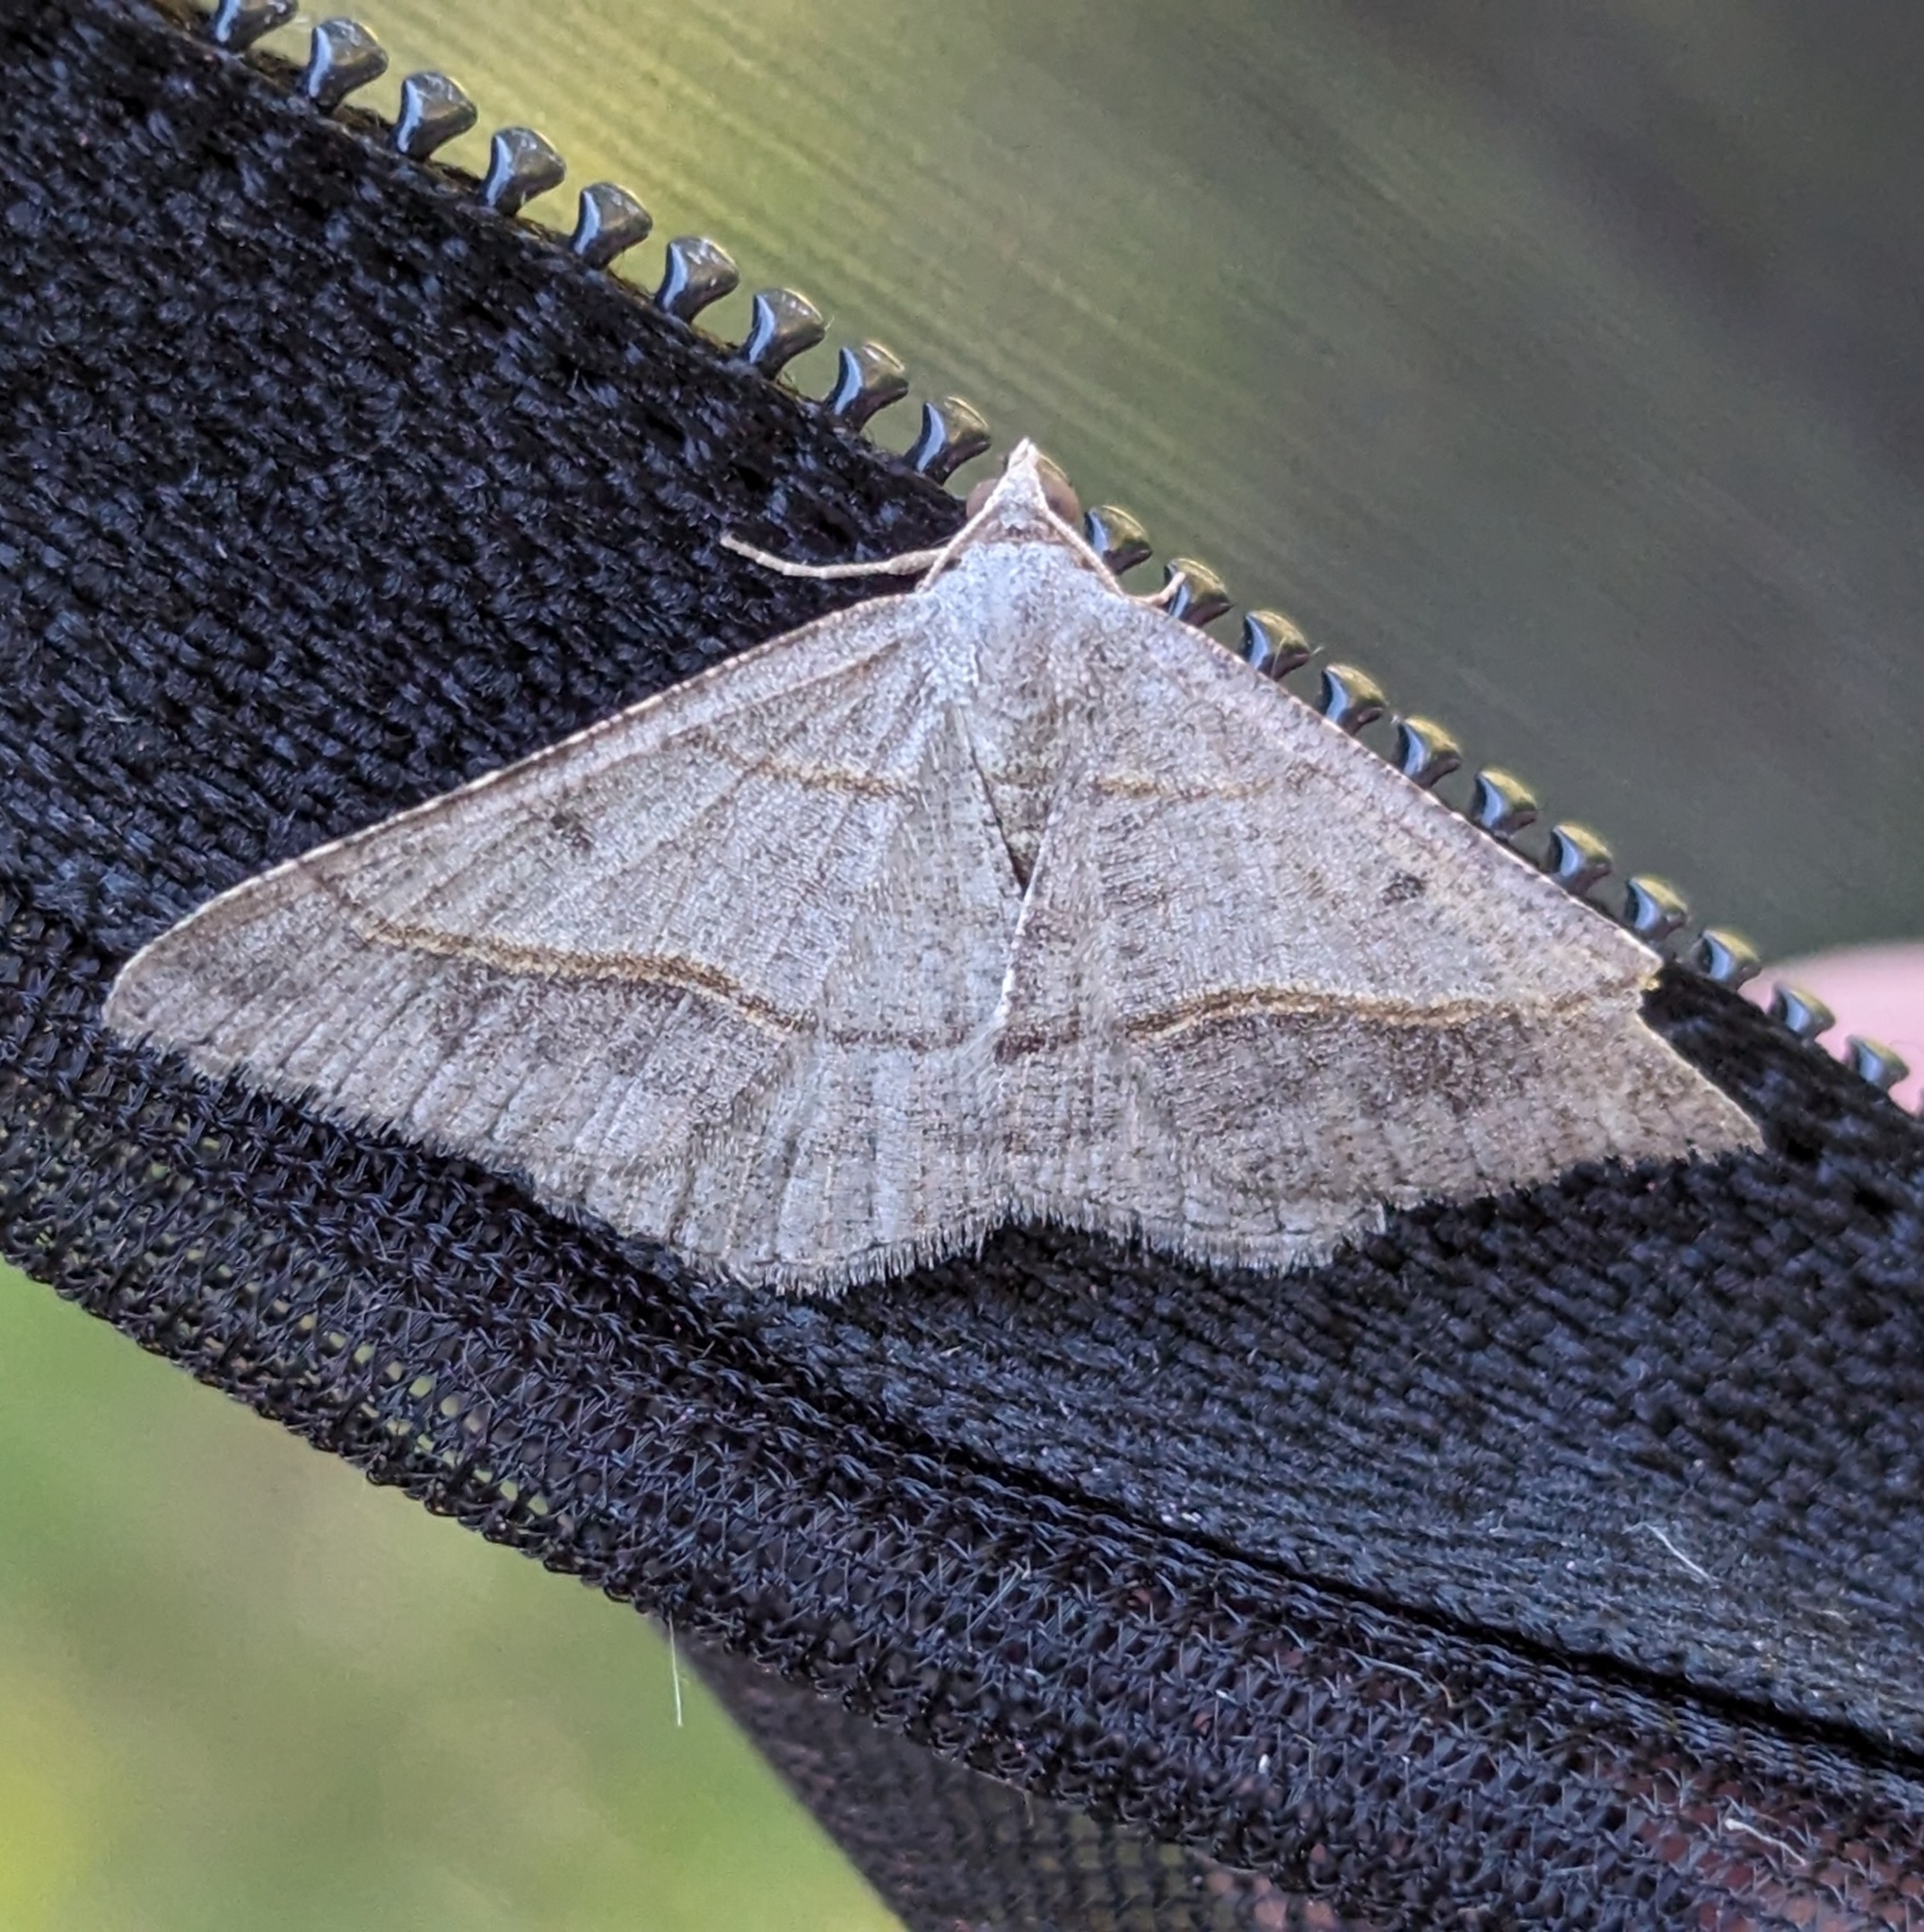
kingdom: Animalia
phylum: Arthropoda
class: Insecta
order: Lepidoptera
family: Geometridae
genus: Digrammia
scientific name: Digrammia neptaria
